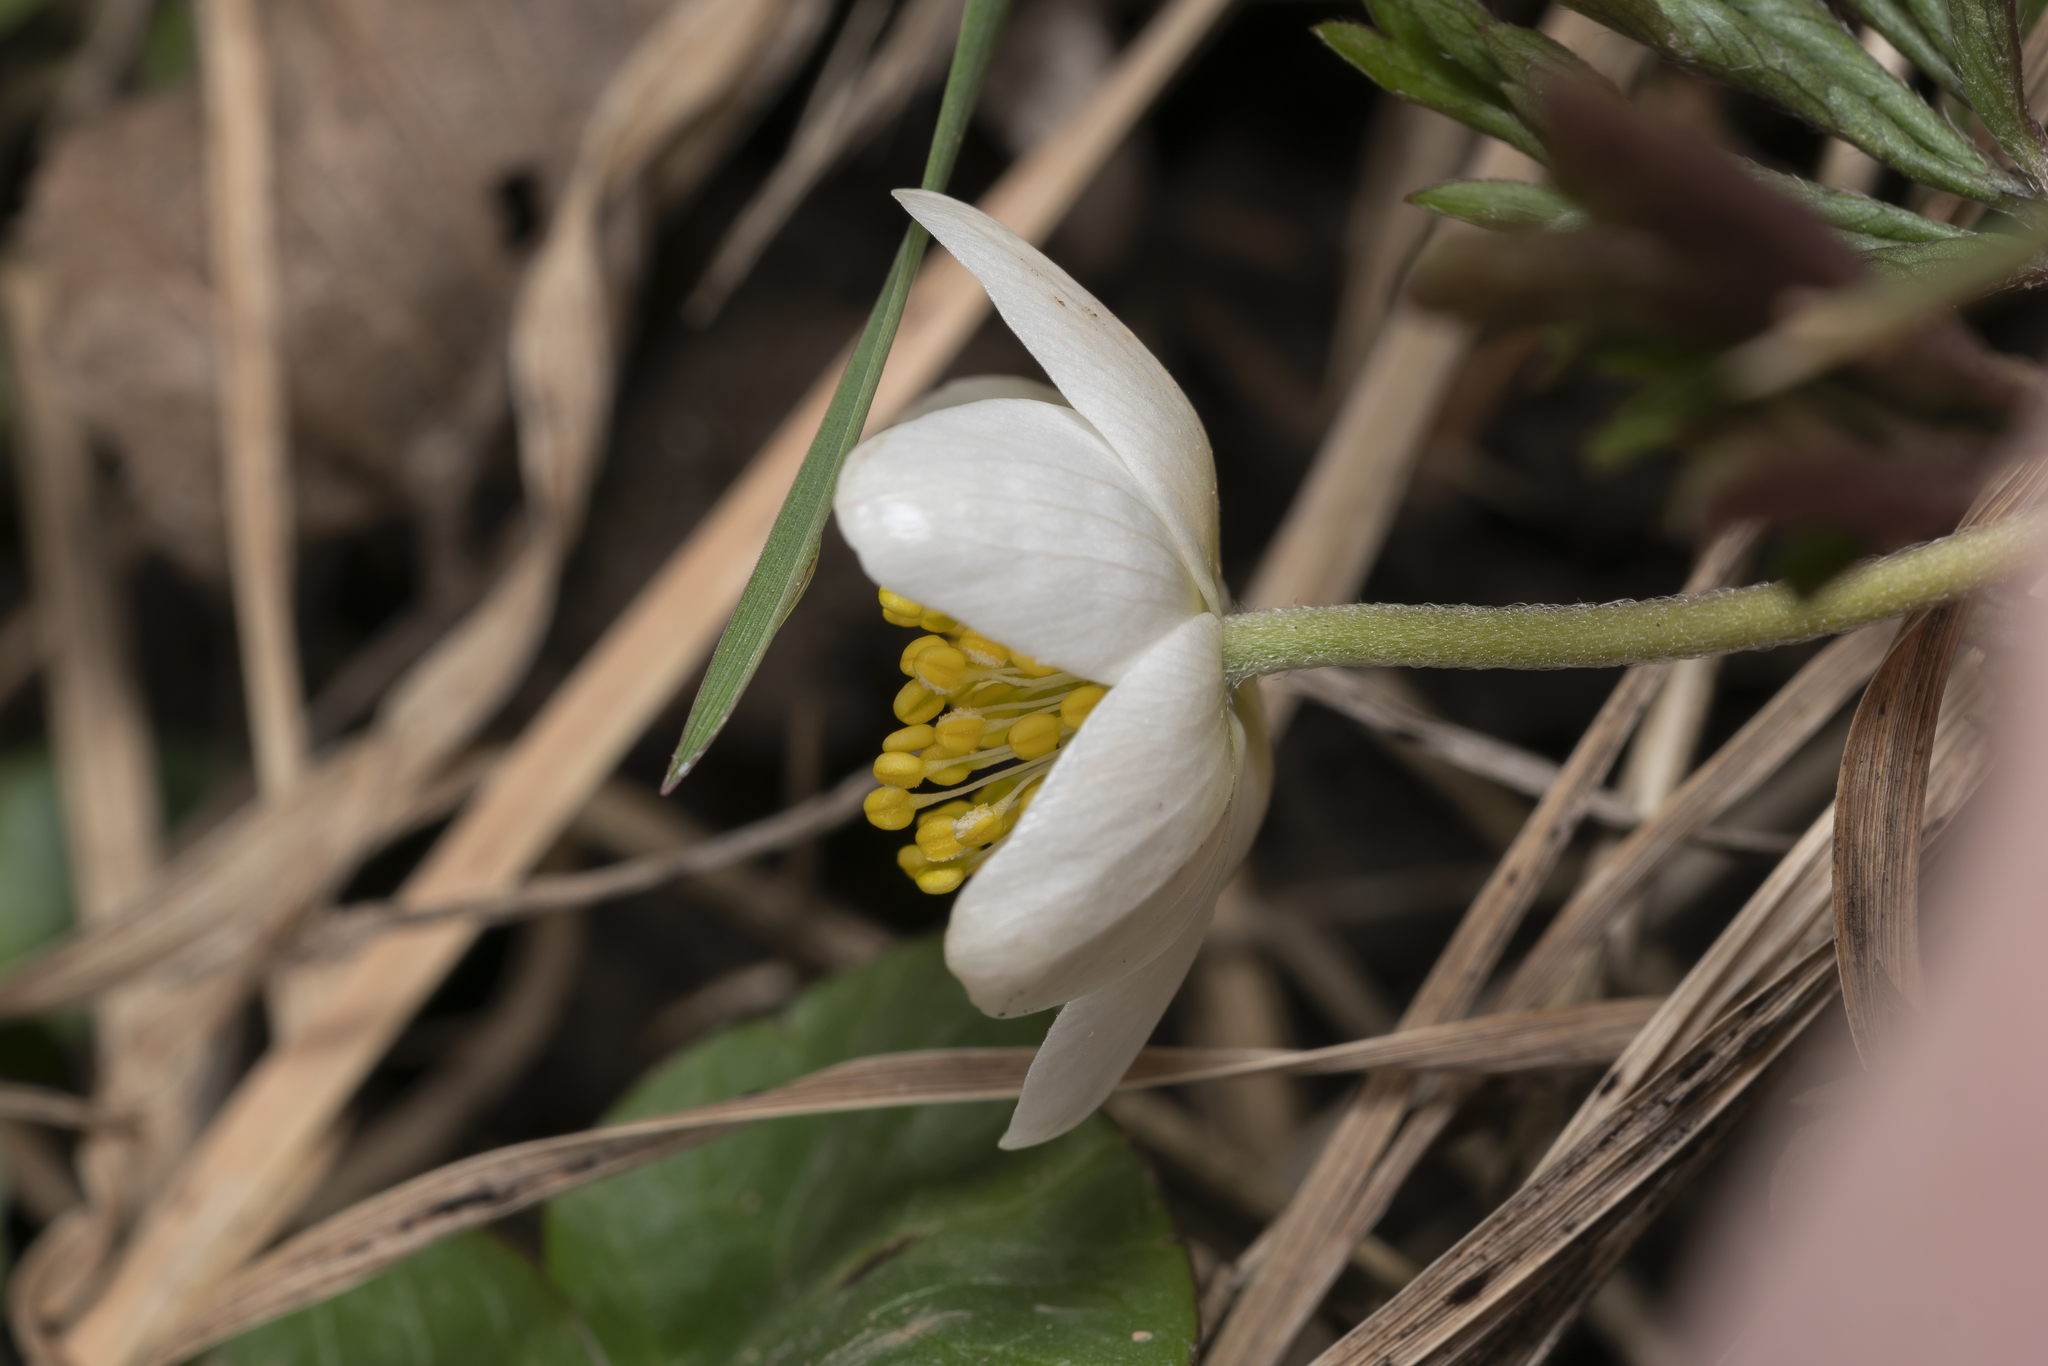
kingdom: Plantae
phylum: Tracheophyta
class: Magnoliopsida
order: Ranunculales
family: Ranunculaceae
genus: Anemone
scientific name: Anemone nemorosa
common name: Wood anemone
